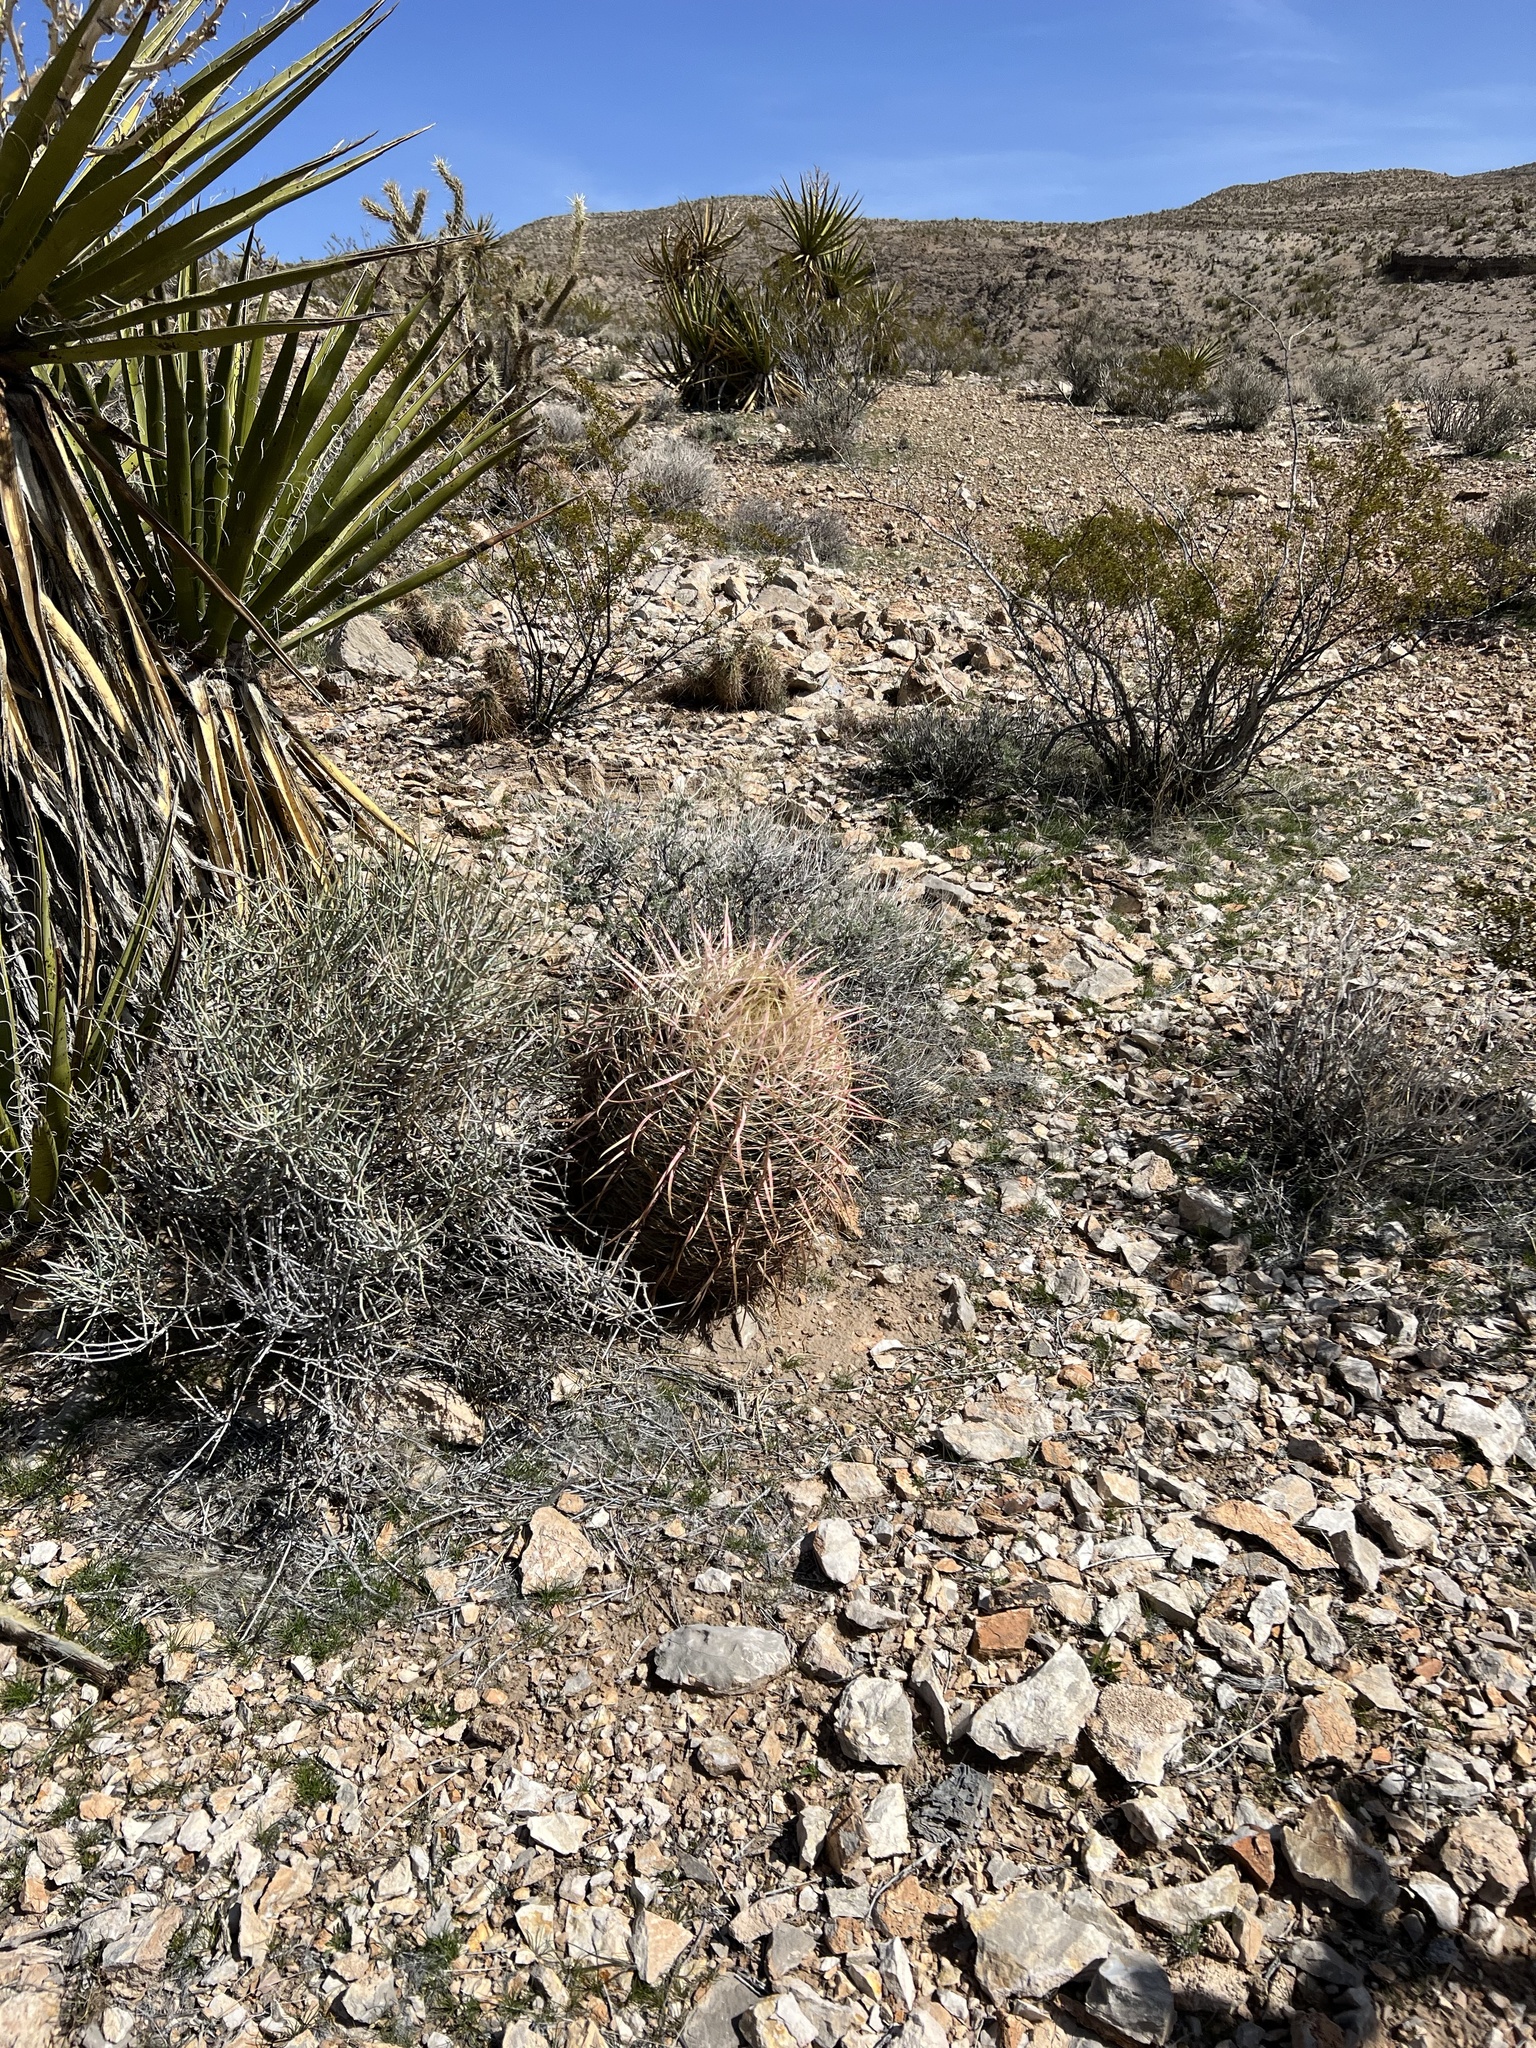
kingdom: Plantae
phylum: Tracheophyta
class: Magnoliopsida
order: Caryophyllales
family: Cactaceae
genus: Ferocactus
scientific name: Ferocactus cylindraceus
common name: California barrel cactus
